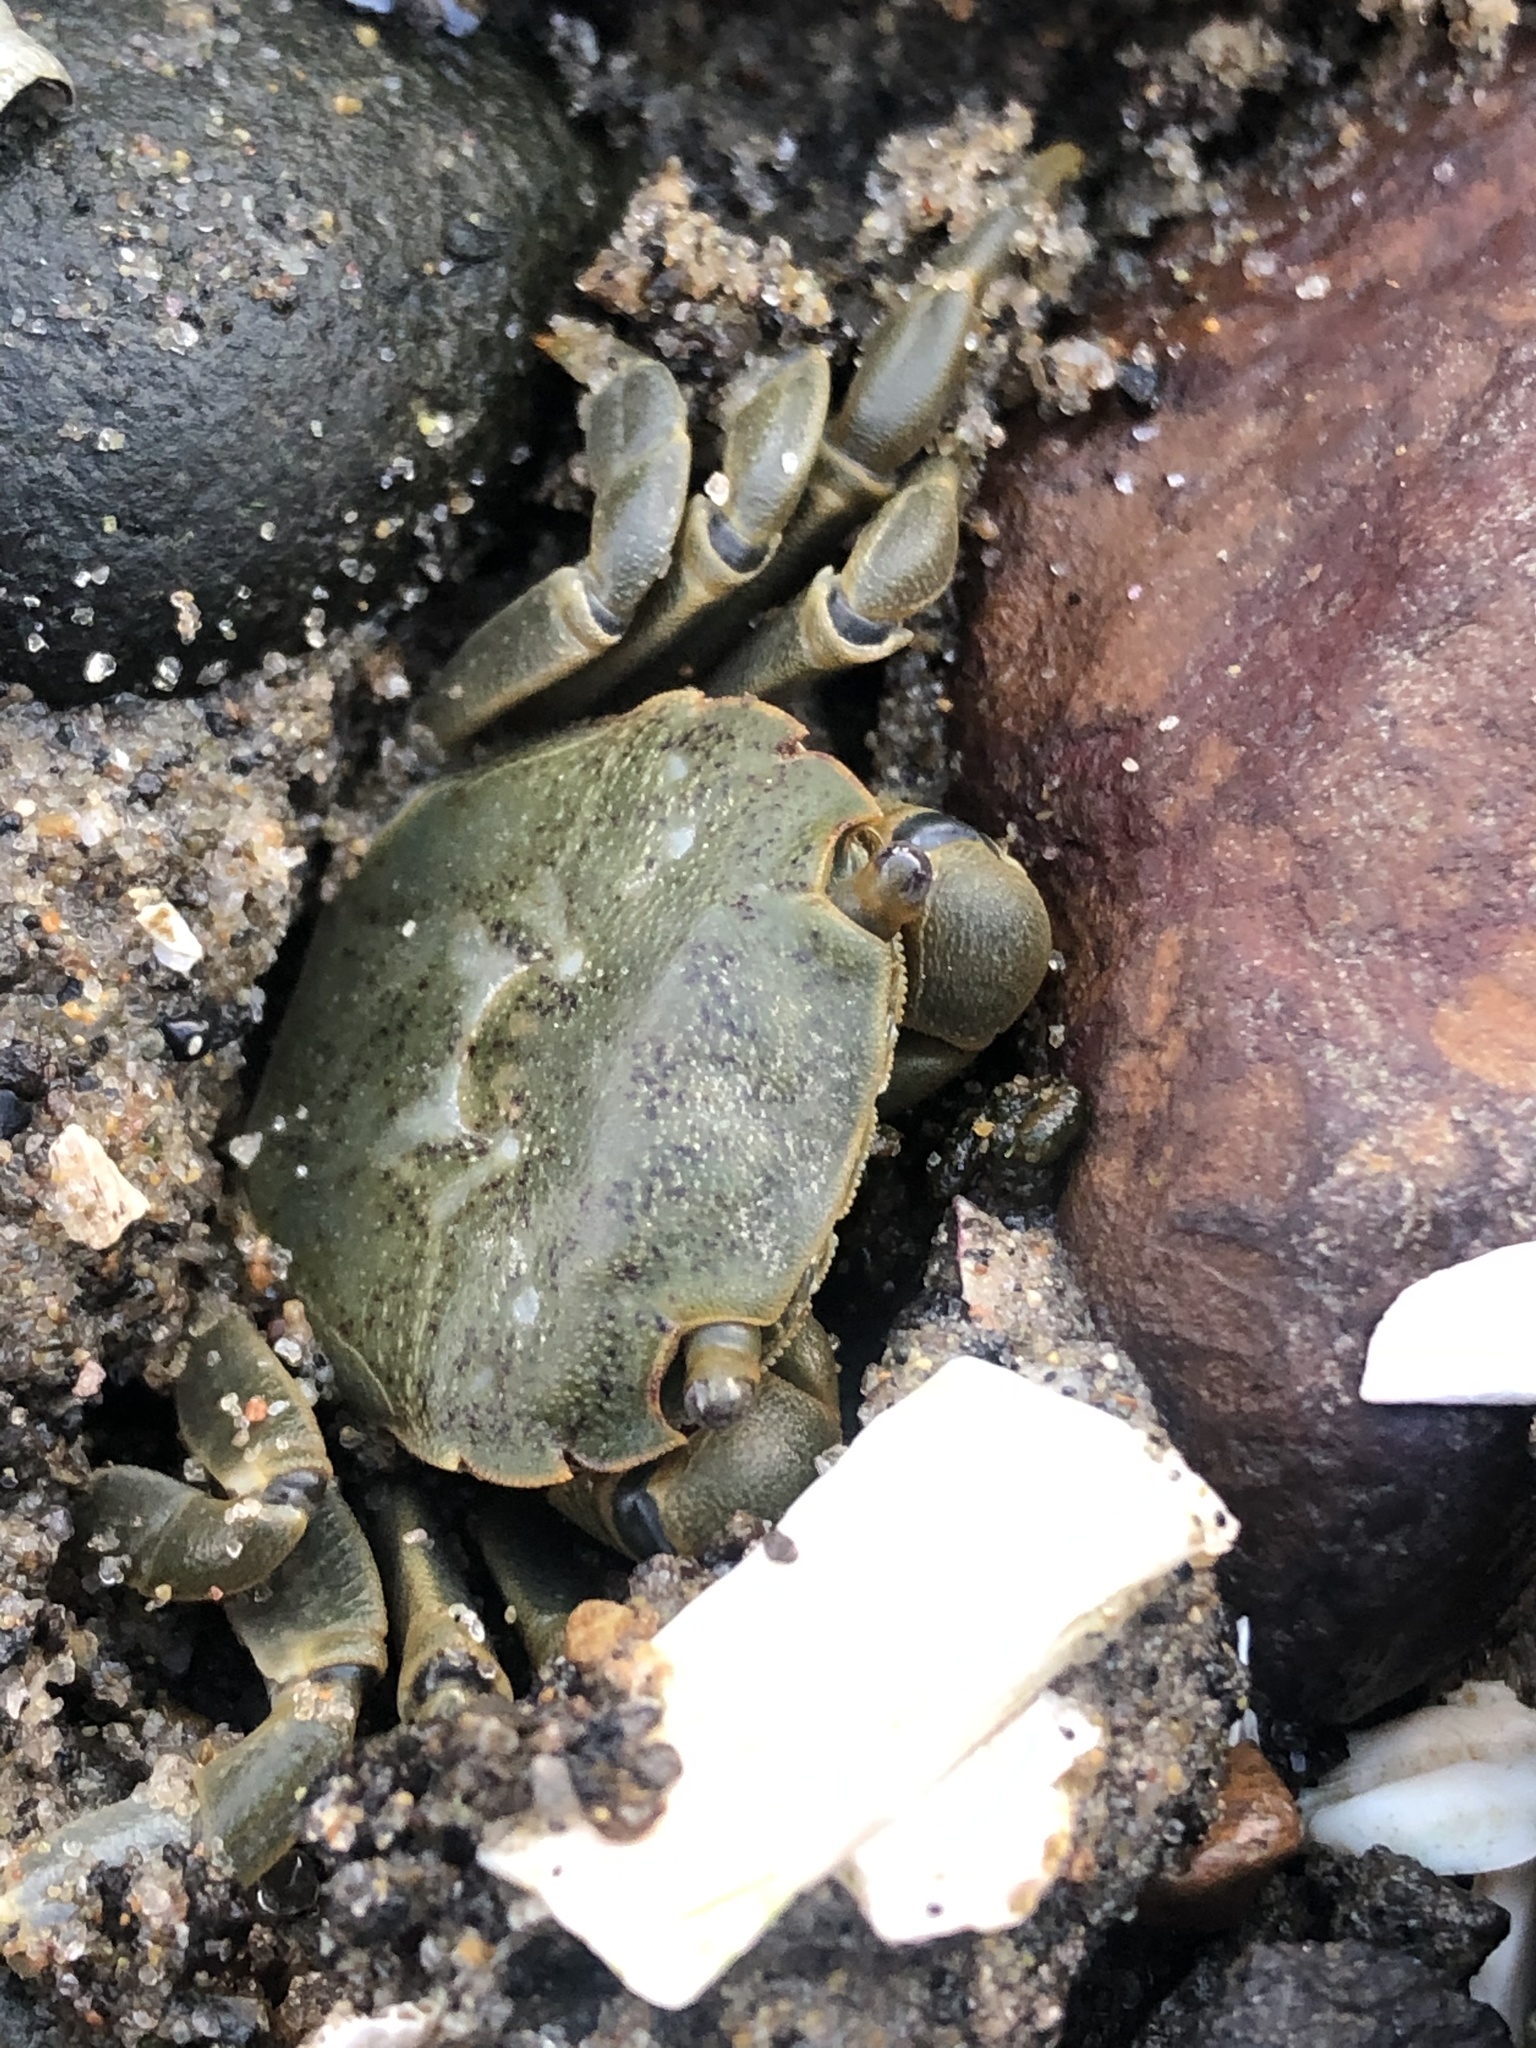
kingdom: Animalia
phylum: Arthropoda
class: Malacostraca
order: Decapoda
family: Varunidae
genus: Hemigrapsus
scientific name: Hemigrapsus nudus
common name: Purple shore crab
